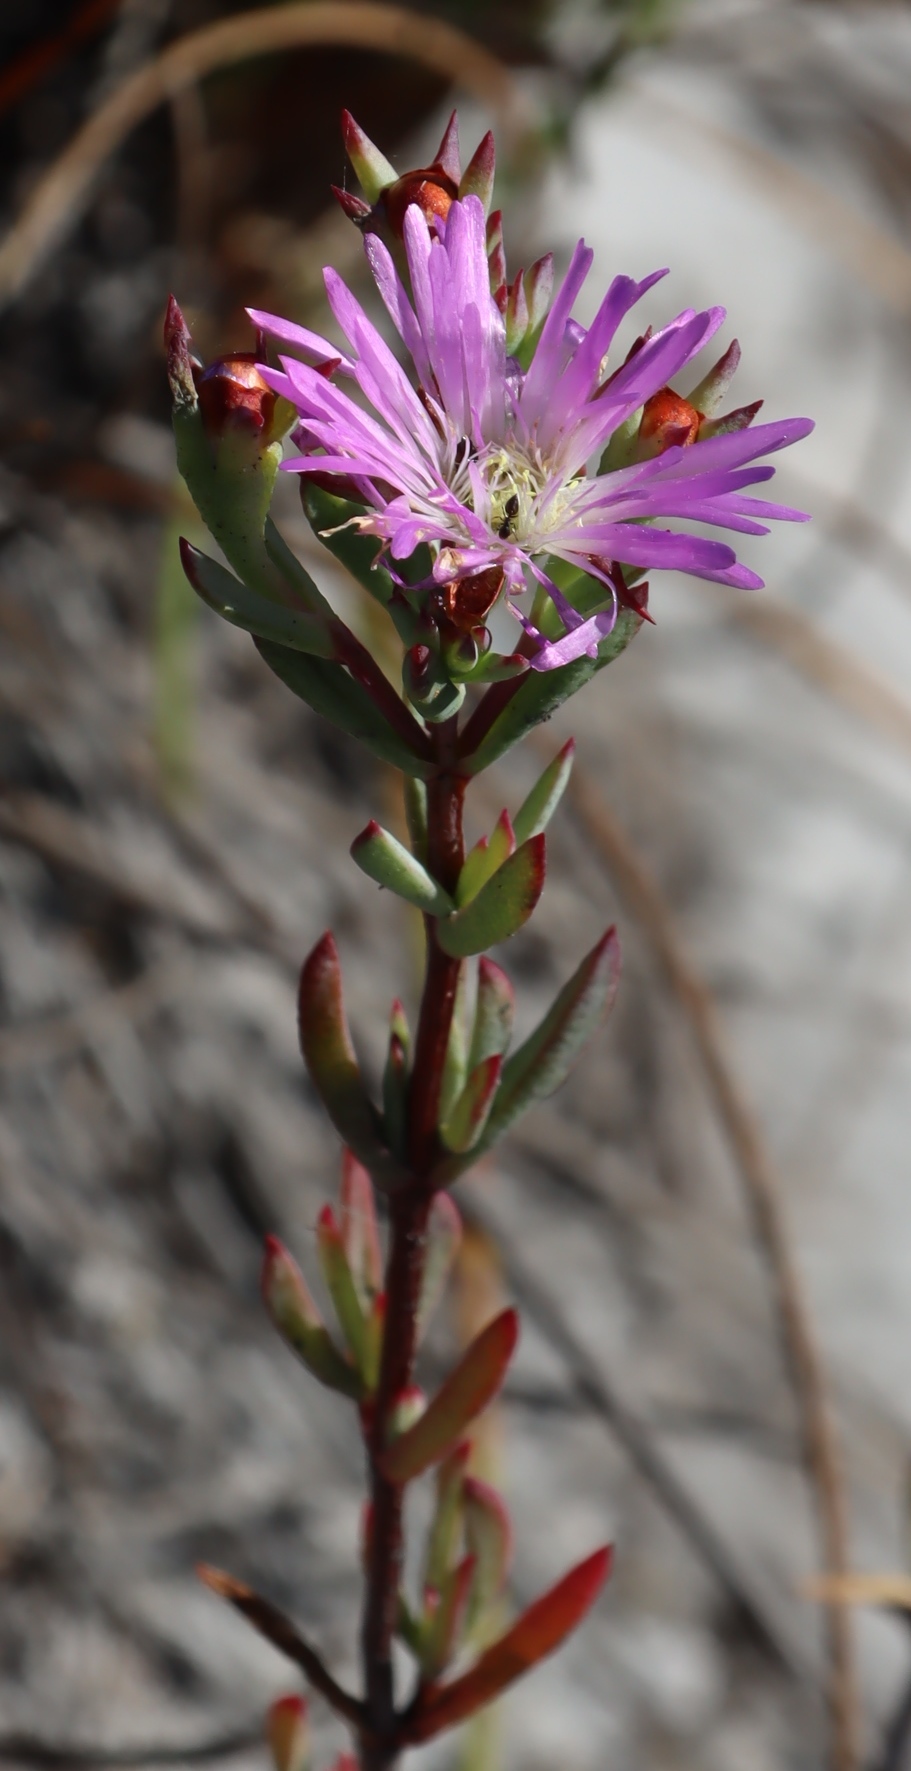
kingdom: Plantae
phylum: Tracheophyta
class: Magnoliopsida
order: Caryophyllales
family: Aizoaceae
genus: Erepsia
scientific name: Erepsia anceps
